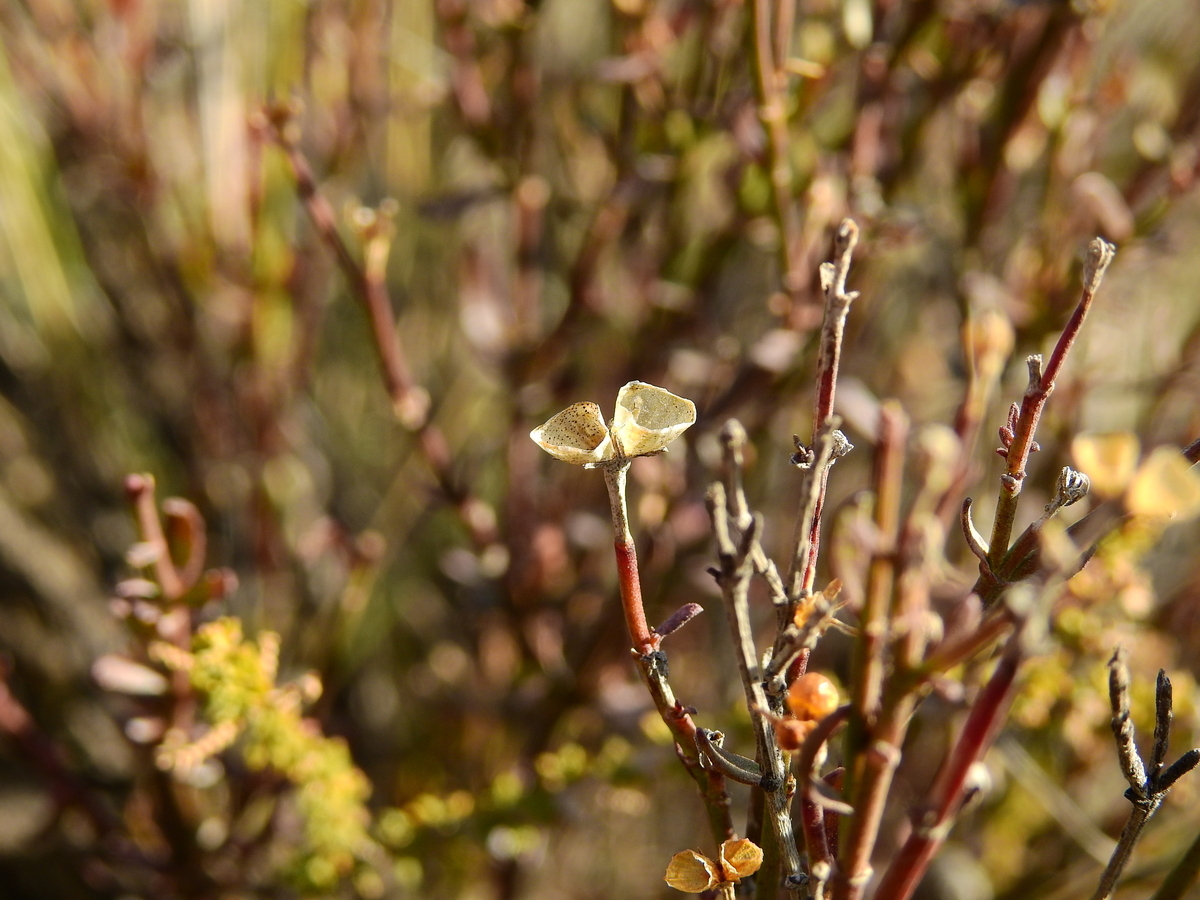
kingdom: Plantae
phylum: Tracheophyta
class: Magnoliopsida
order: Lamiales
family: Oleaceae
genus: Menodora
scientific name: Menodora decemfida
